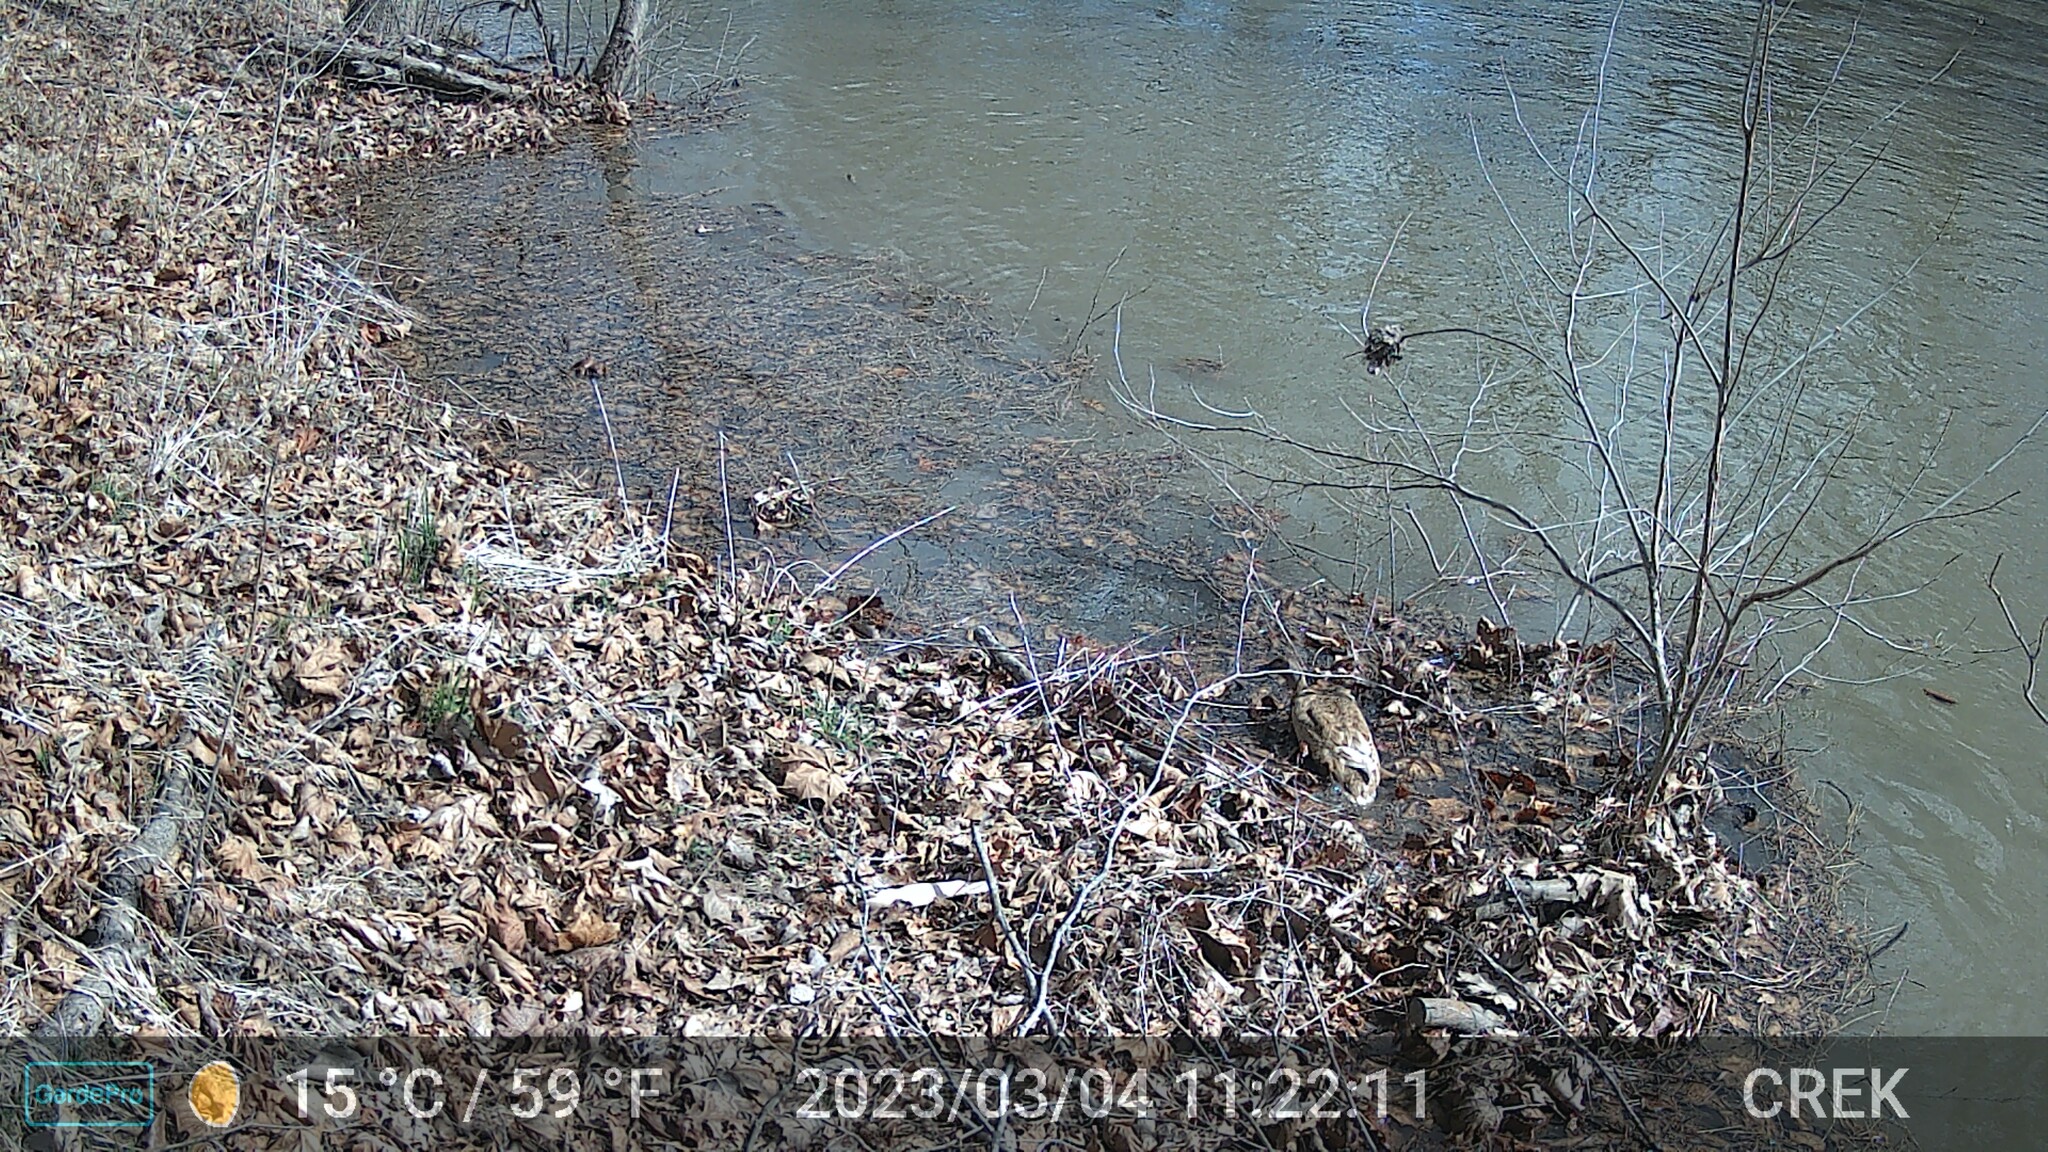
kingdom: Animalia
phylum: Chordata
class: Aves
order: Anseriformes
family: Anatidae
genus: Anas
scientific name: Anas platyrhynchos
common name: Mallard
